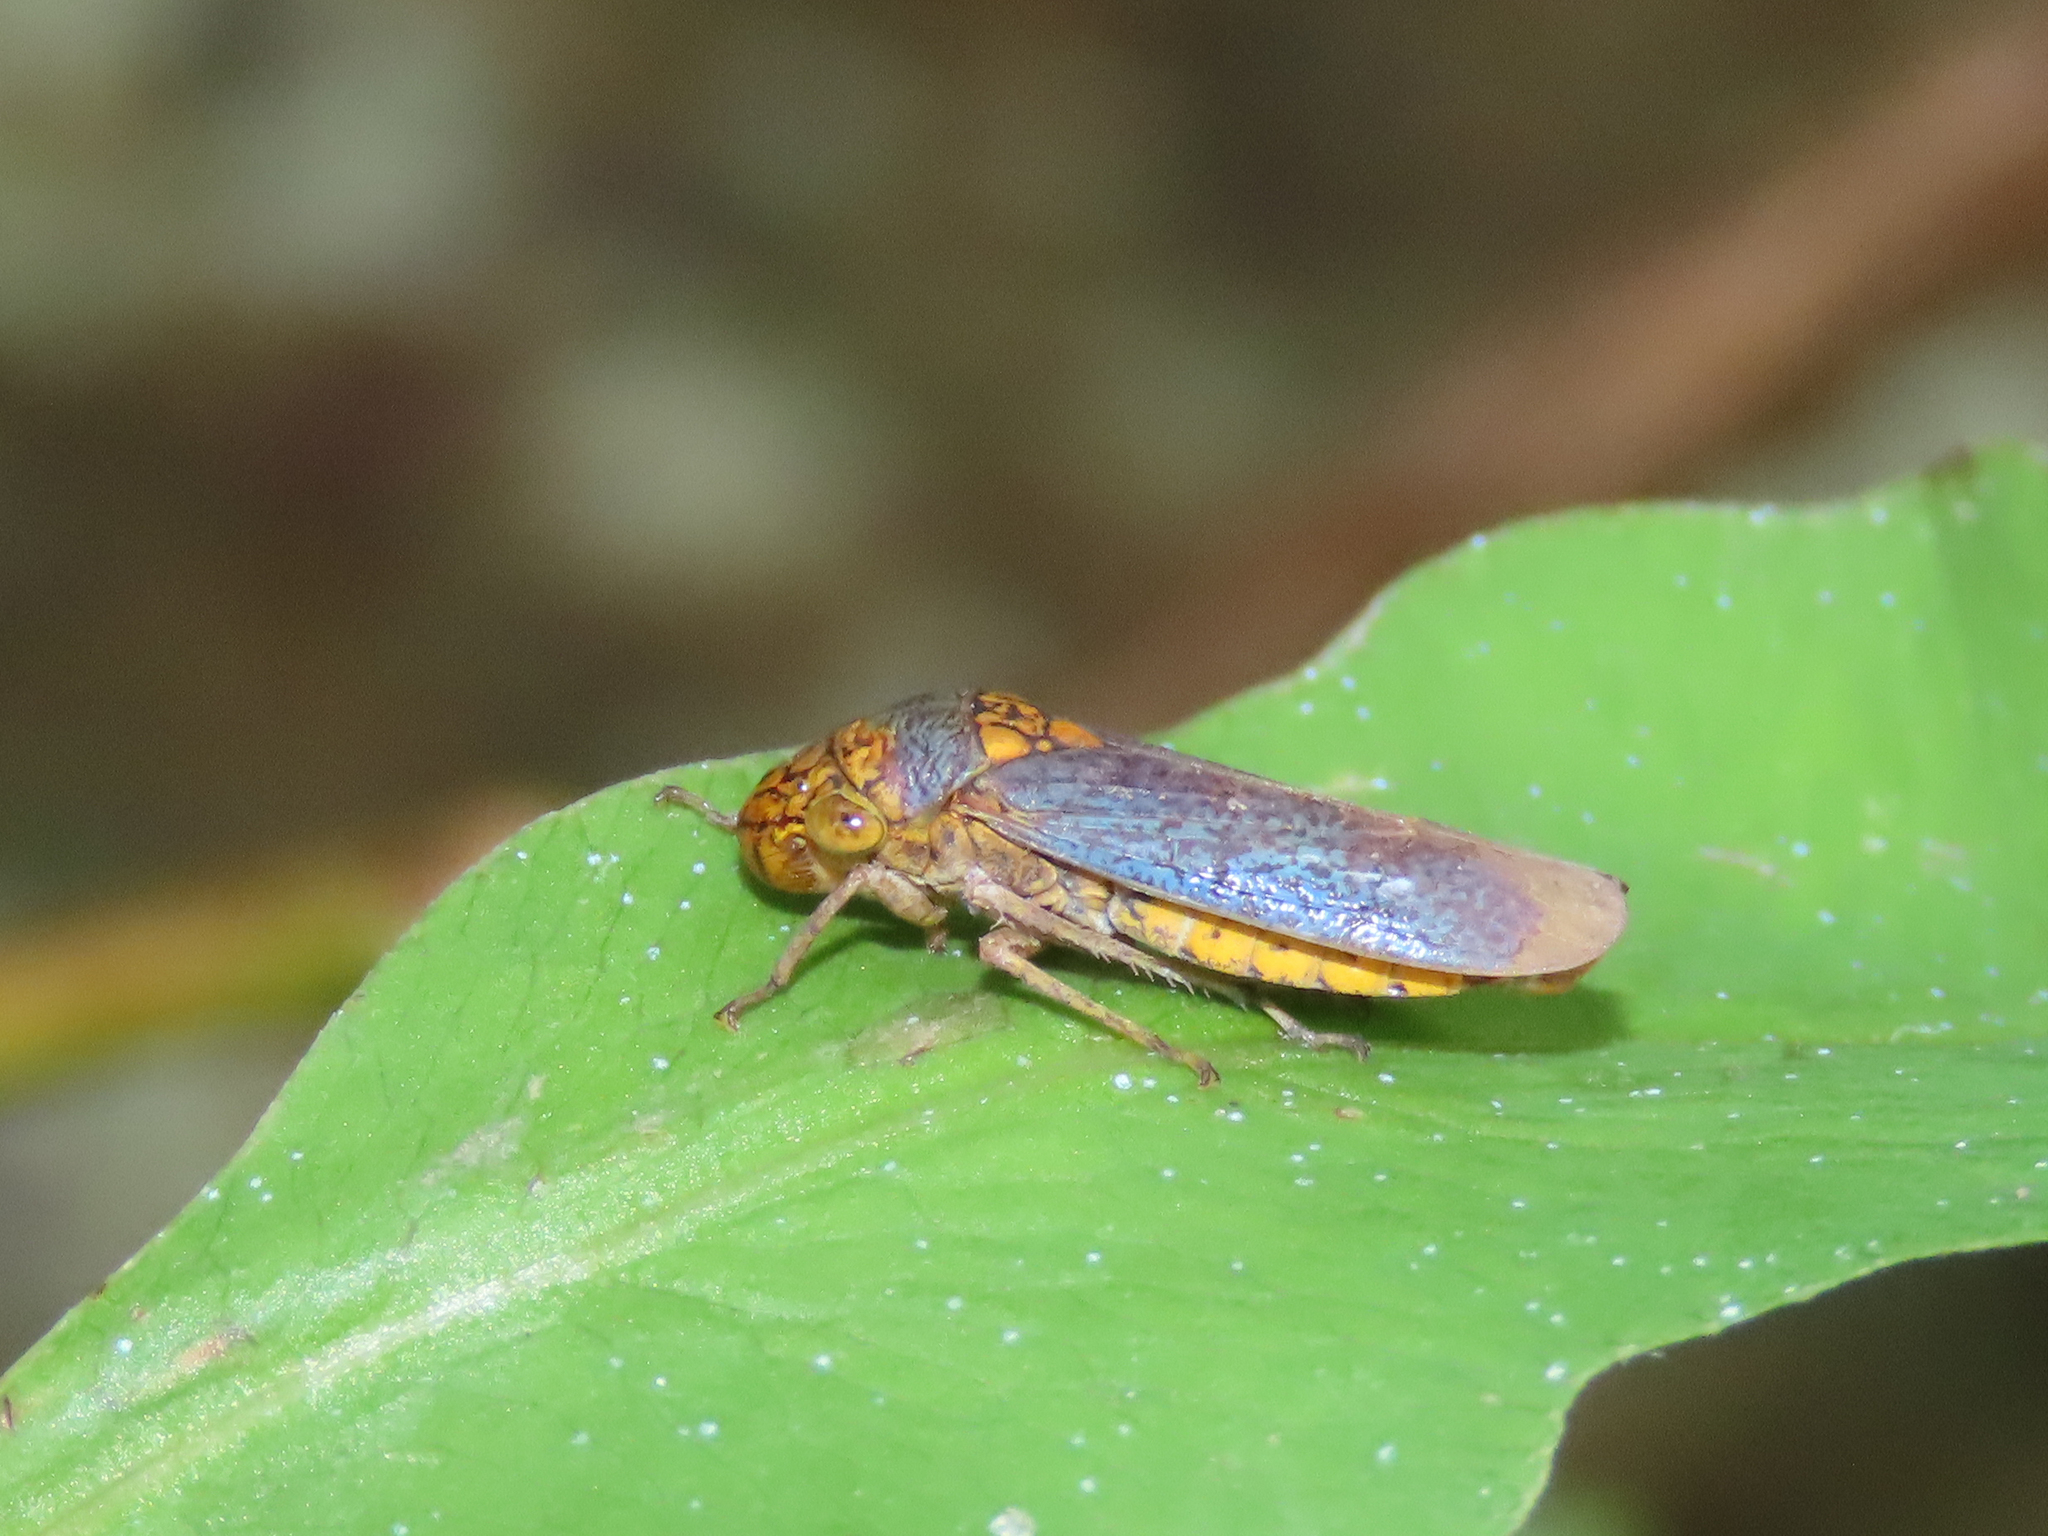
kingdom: Animalia
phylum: Arthropoda
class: Insecta
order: Hemiptera
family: Cicadellidae
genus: Oncometopia
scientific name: Oncometopia orbona
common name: Broad-headed sharpshooter
